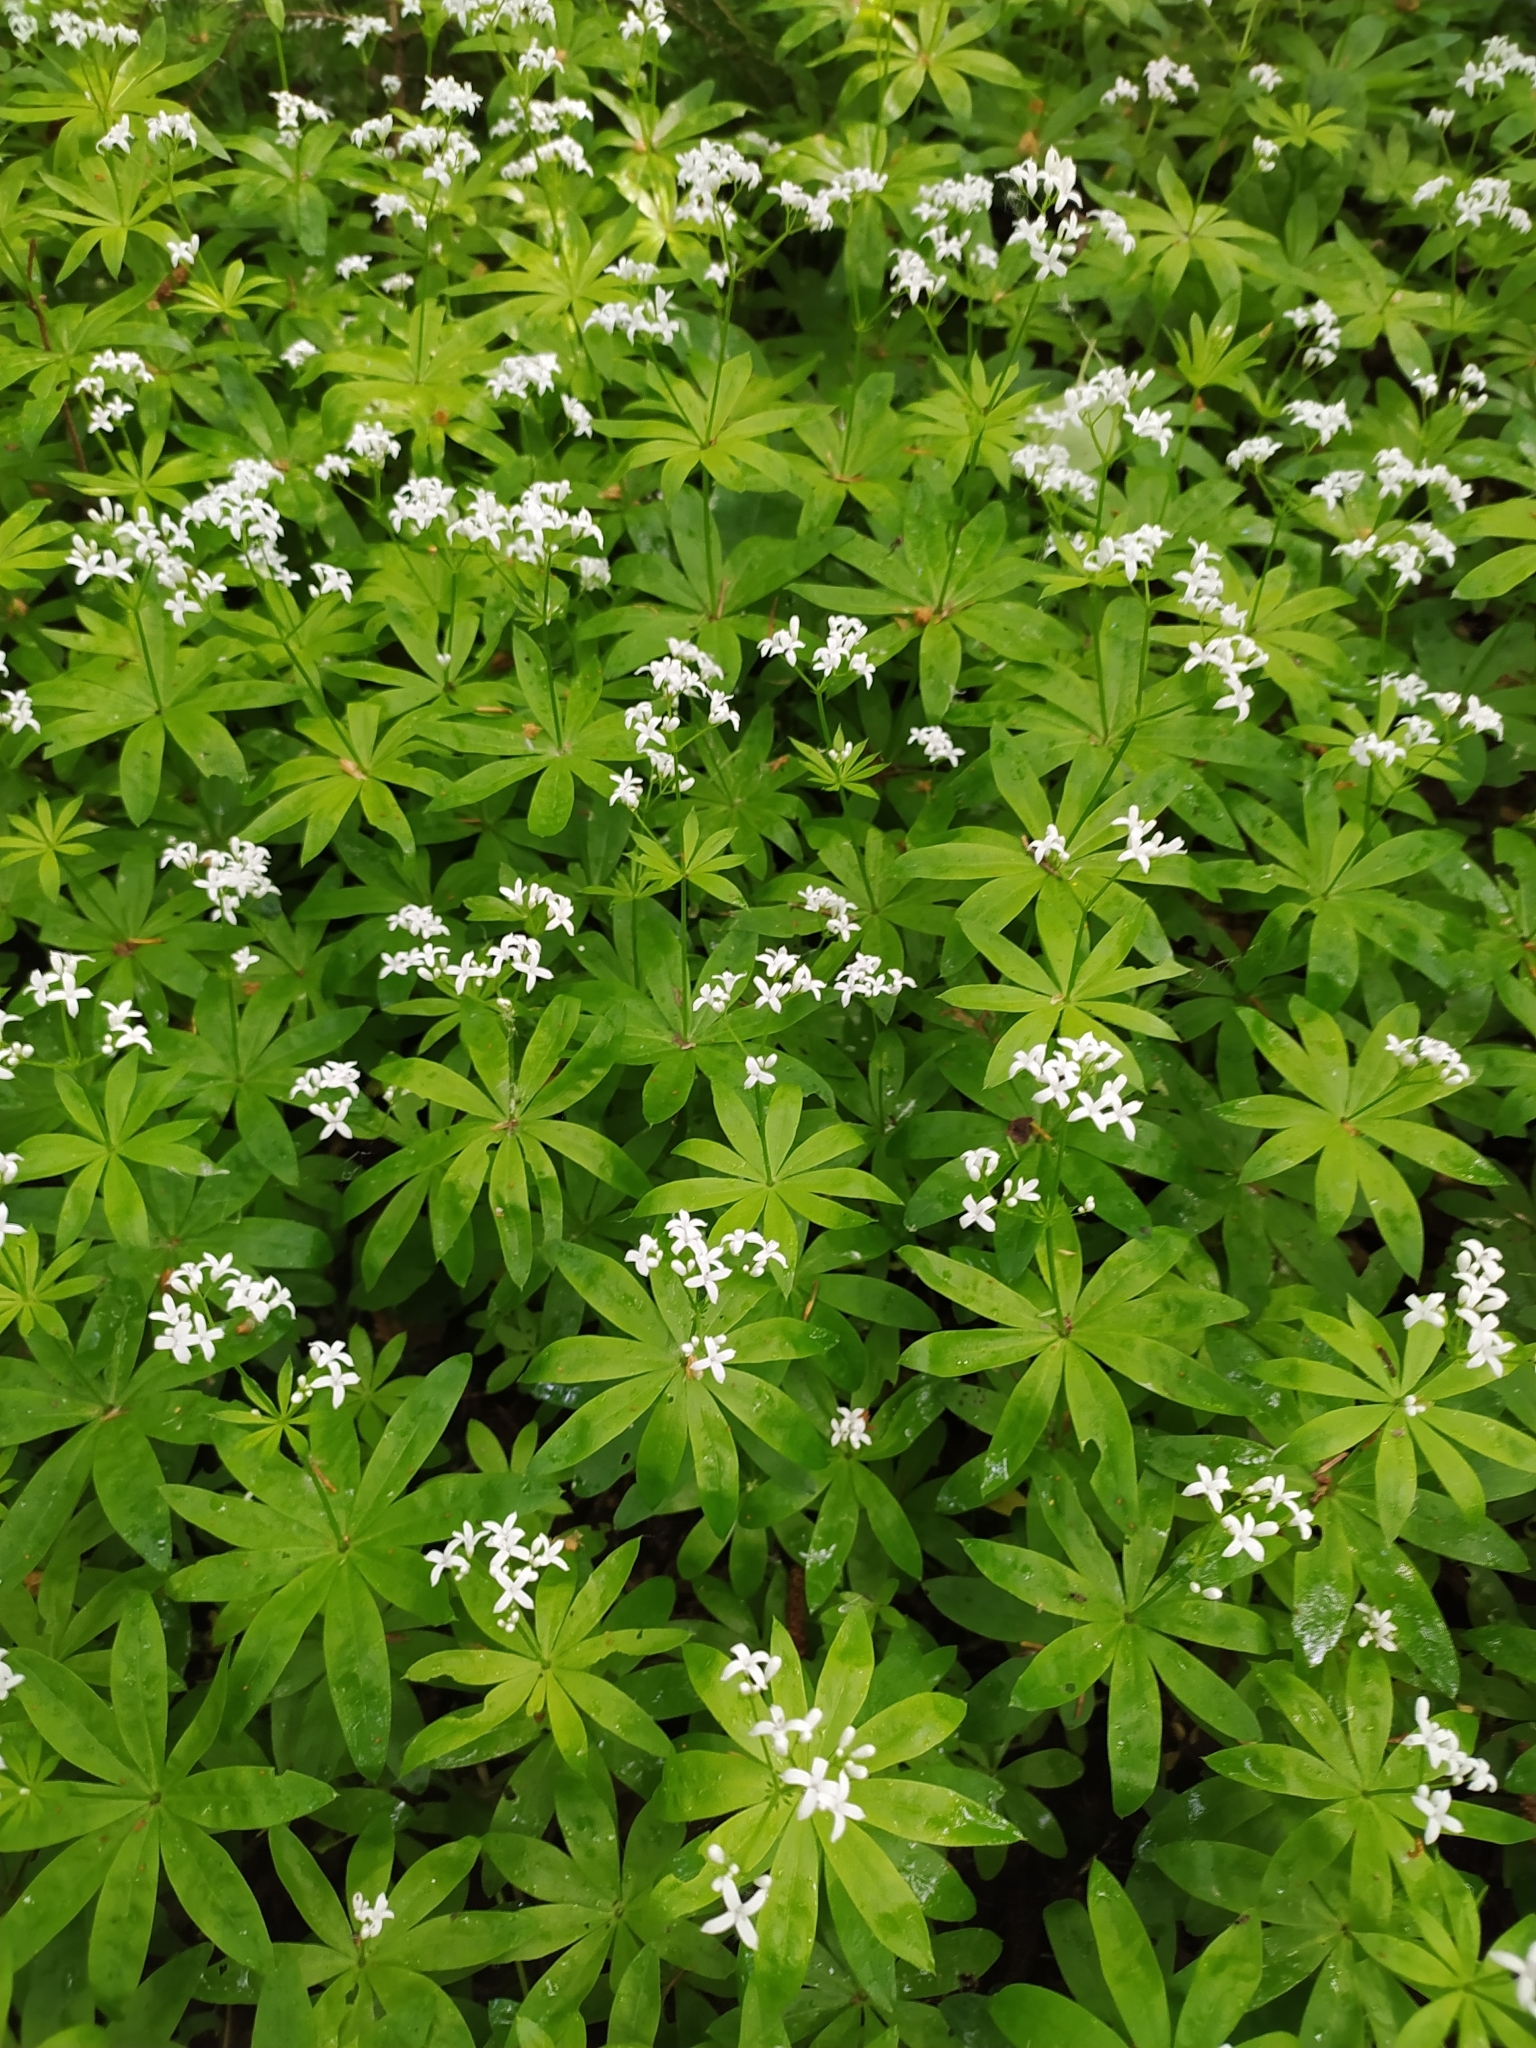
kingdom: Plantae
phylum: Tracheophyta
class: Magnoliopsida
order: Gentianales
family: Rubiaceae
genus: Galium
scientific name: Galium odoratum
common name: Sweet woodruff
